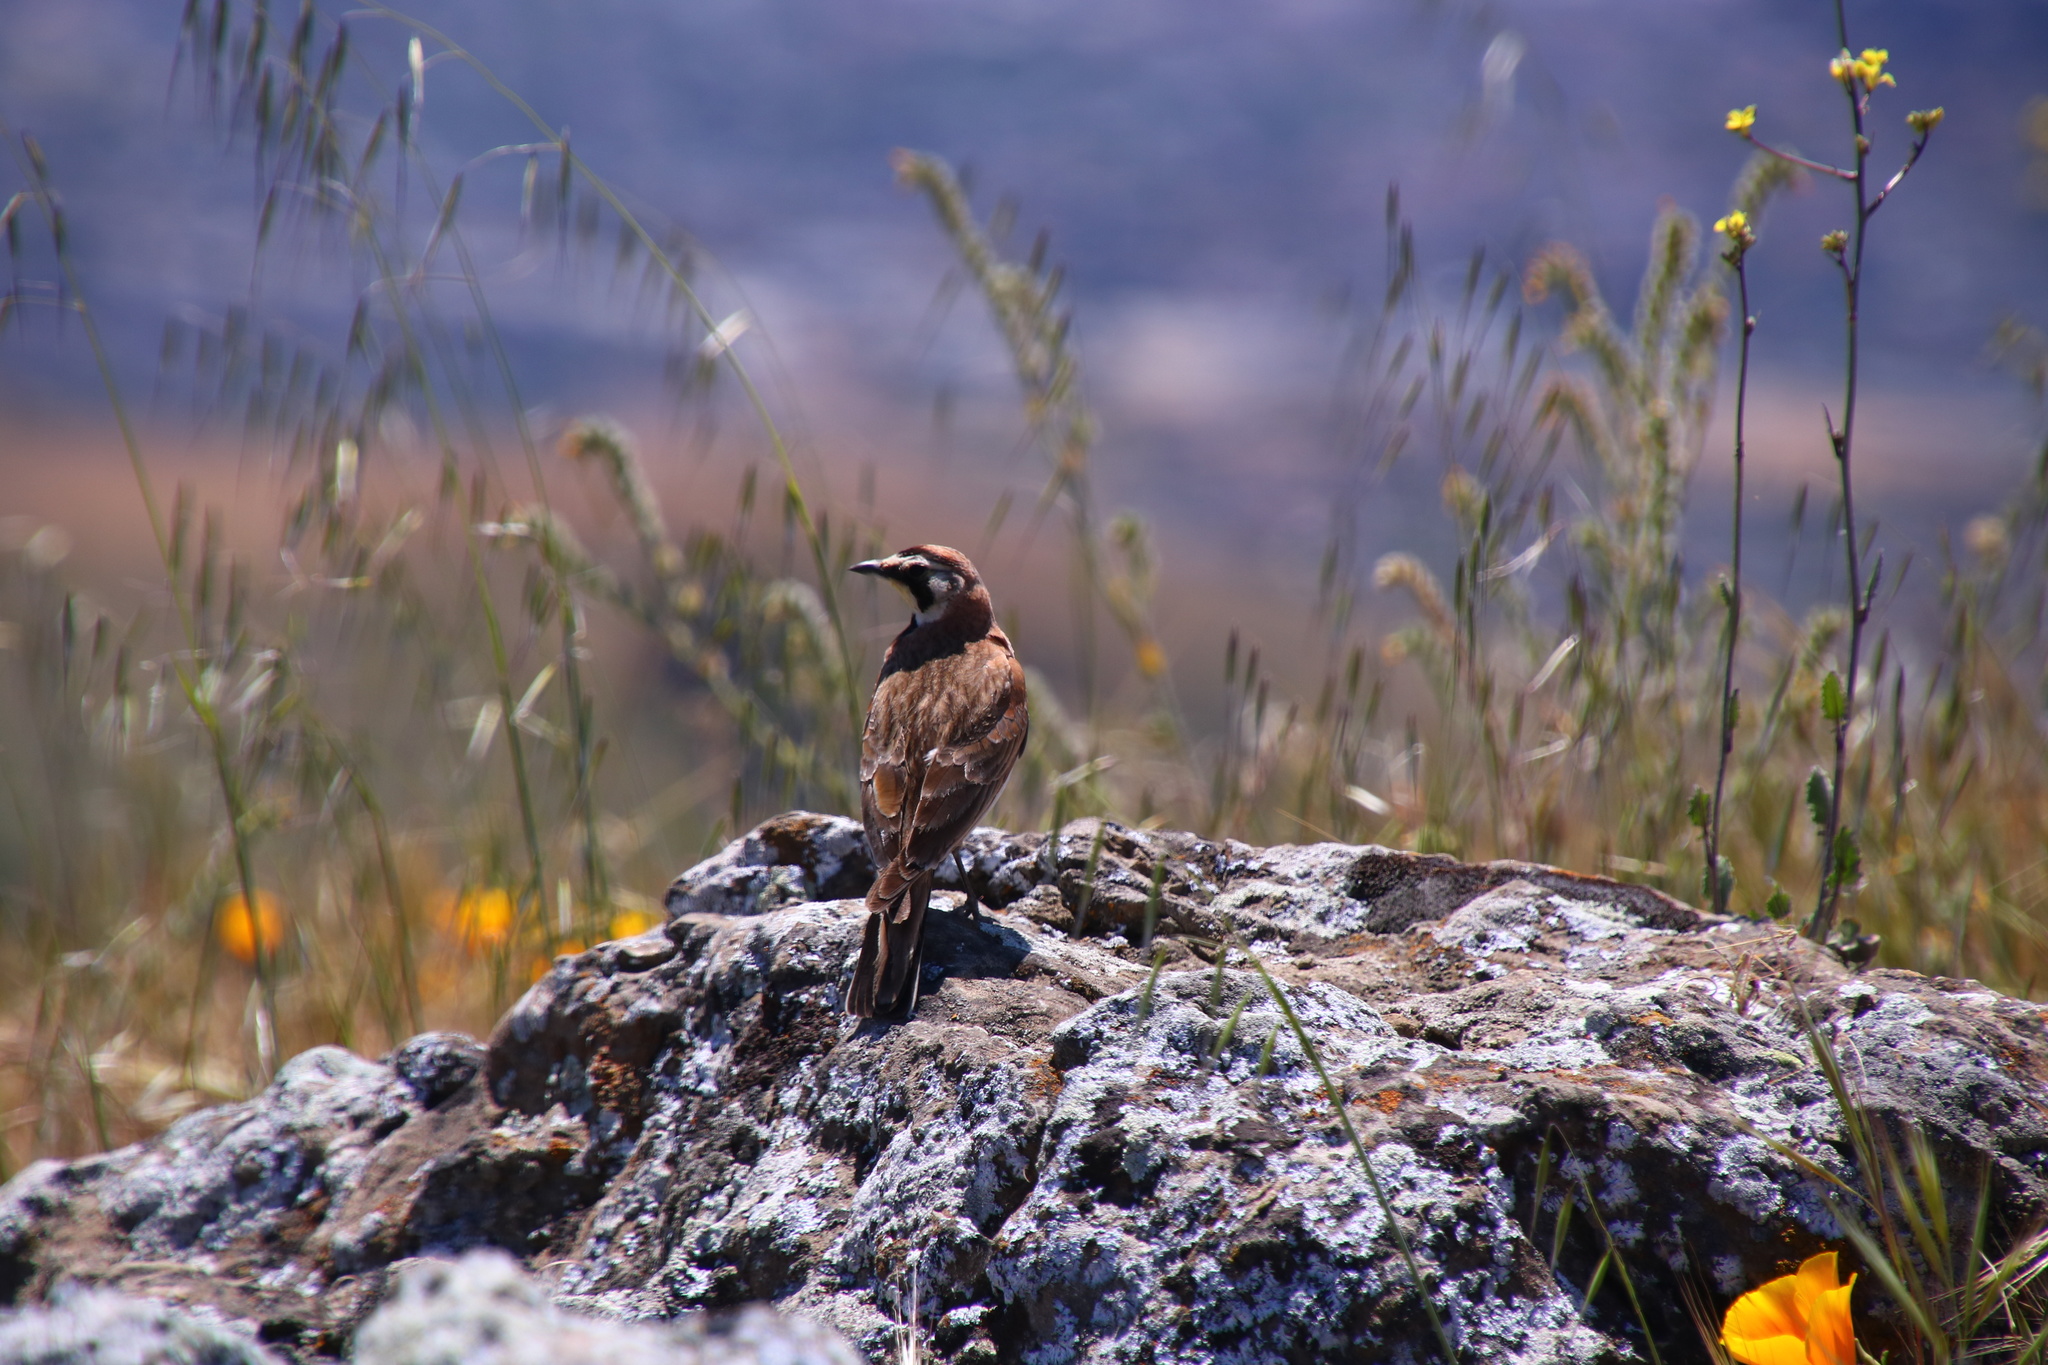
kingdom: Animalia
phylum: Chordata
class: Aves
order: Passeriformes
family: Alaudidae
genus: Eremophila
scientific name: Eremophila alpestris
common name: Horned lark
